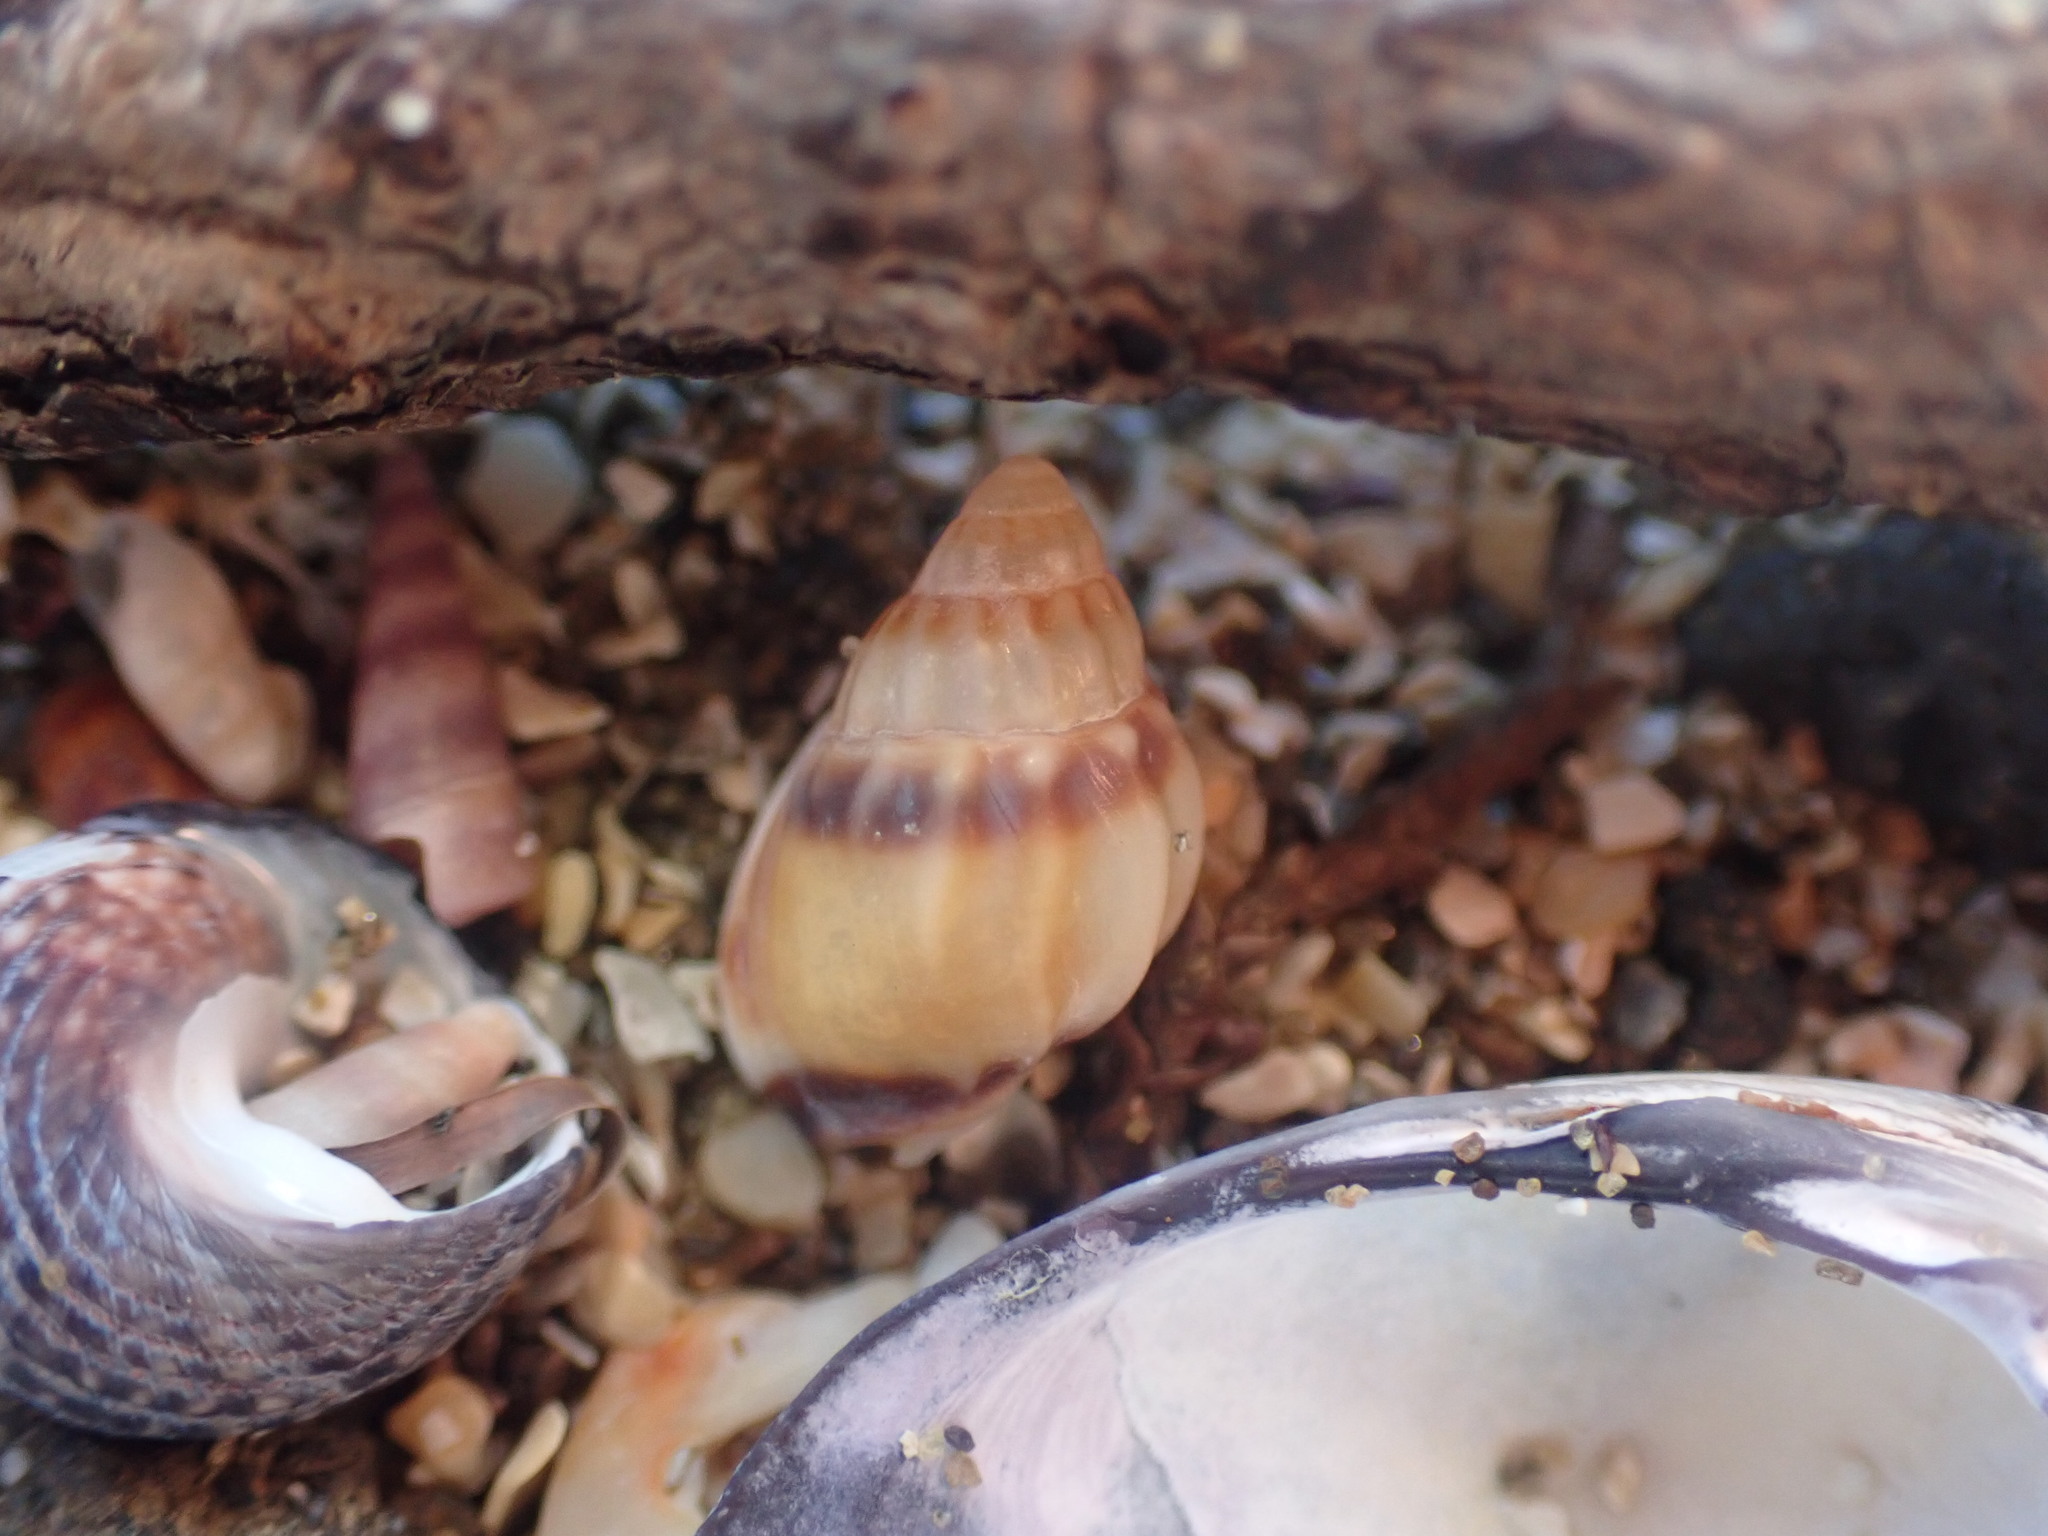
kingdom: Animalia
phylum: Mollusca
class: Gastropoda
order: Neogastropoda
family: Nassariidae
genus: Tritia
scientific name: Tritia burchardi
